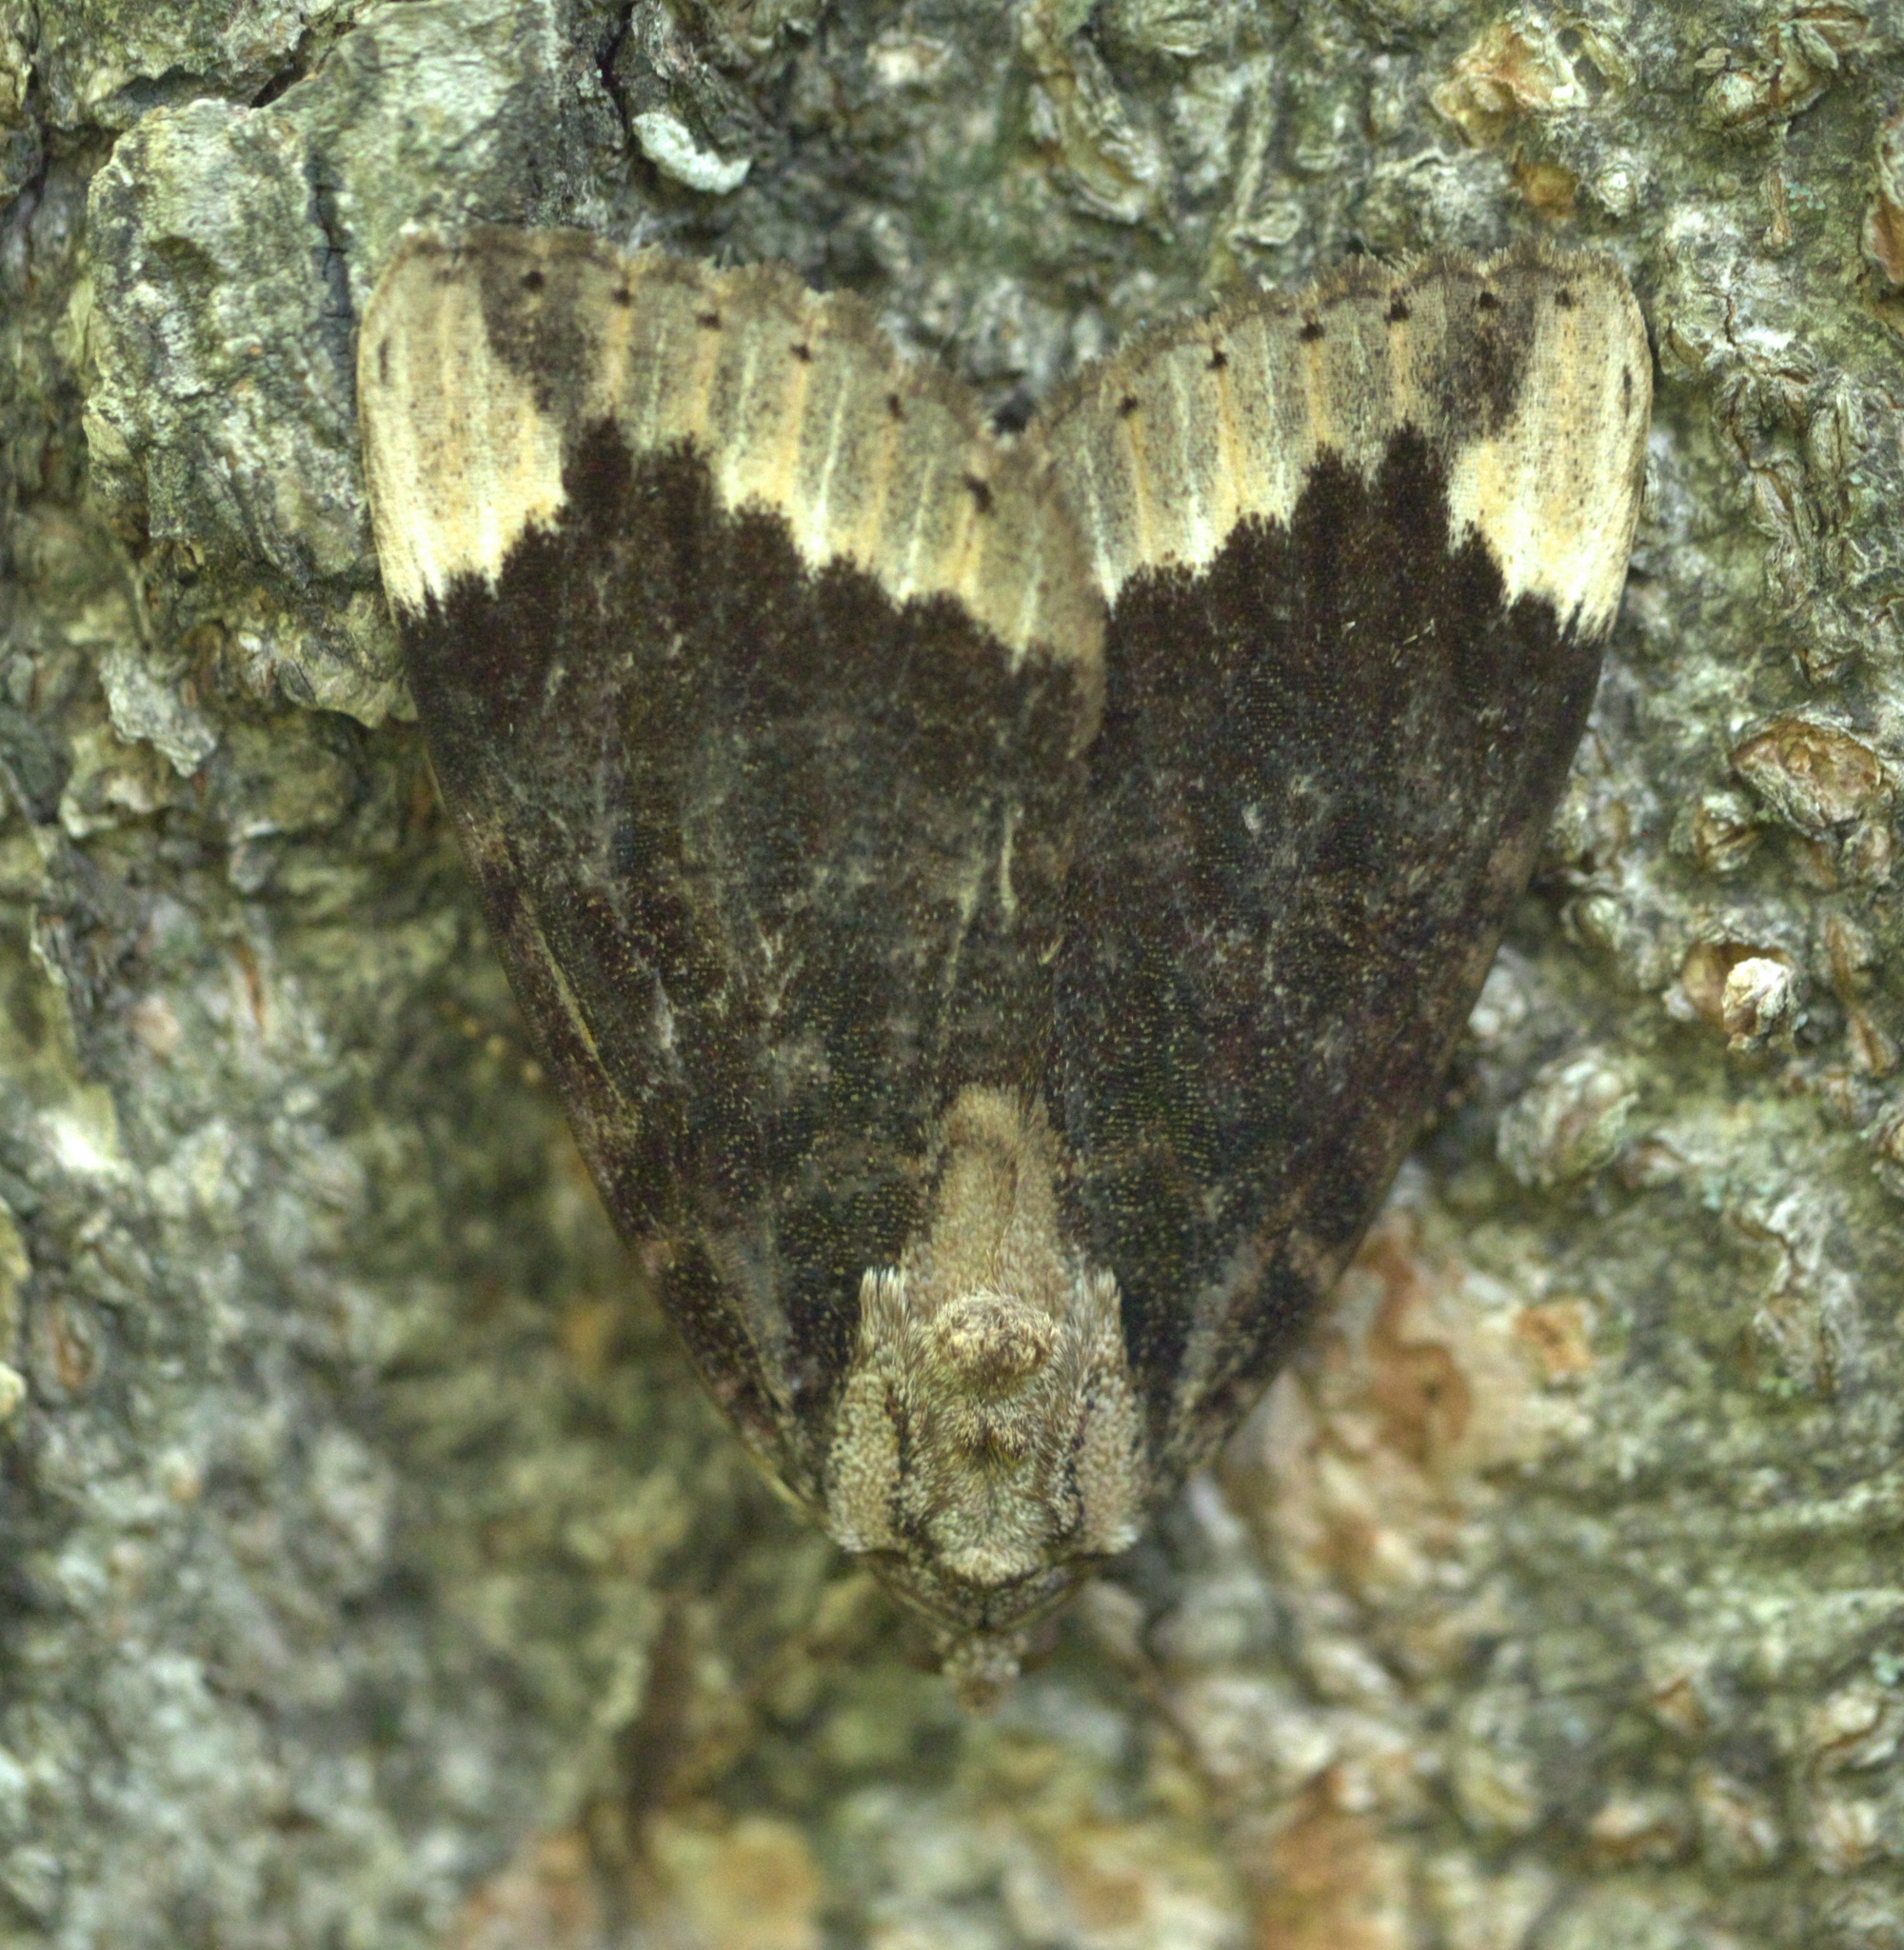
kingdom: Animalia
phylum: Arthropoda
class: Insecta
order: Lepidoptera
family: Erebidae
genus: Catocala
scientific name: Catocala innubens
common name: Betrothed underwing
